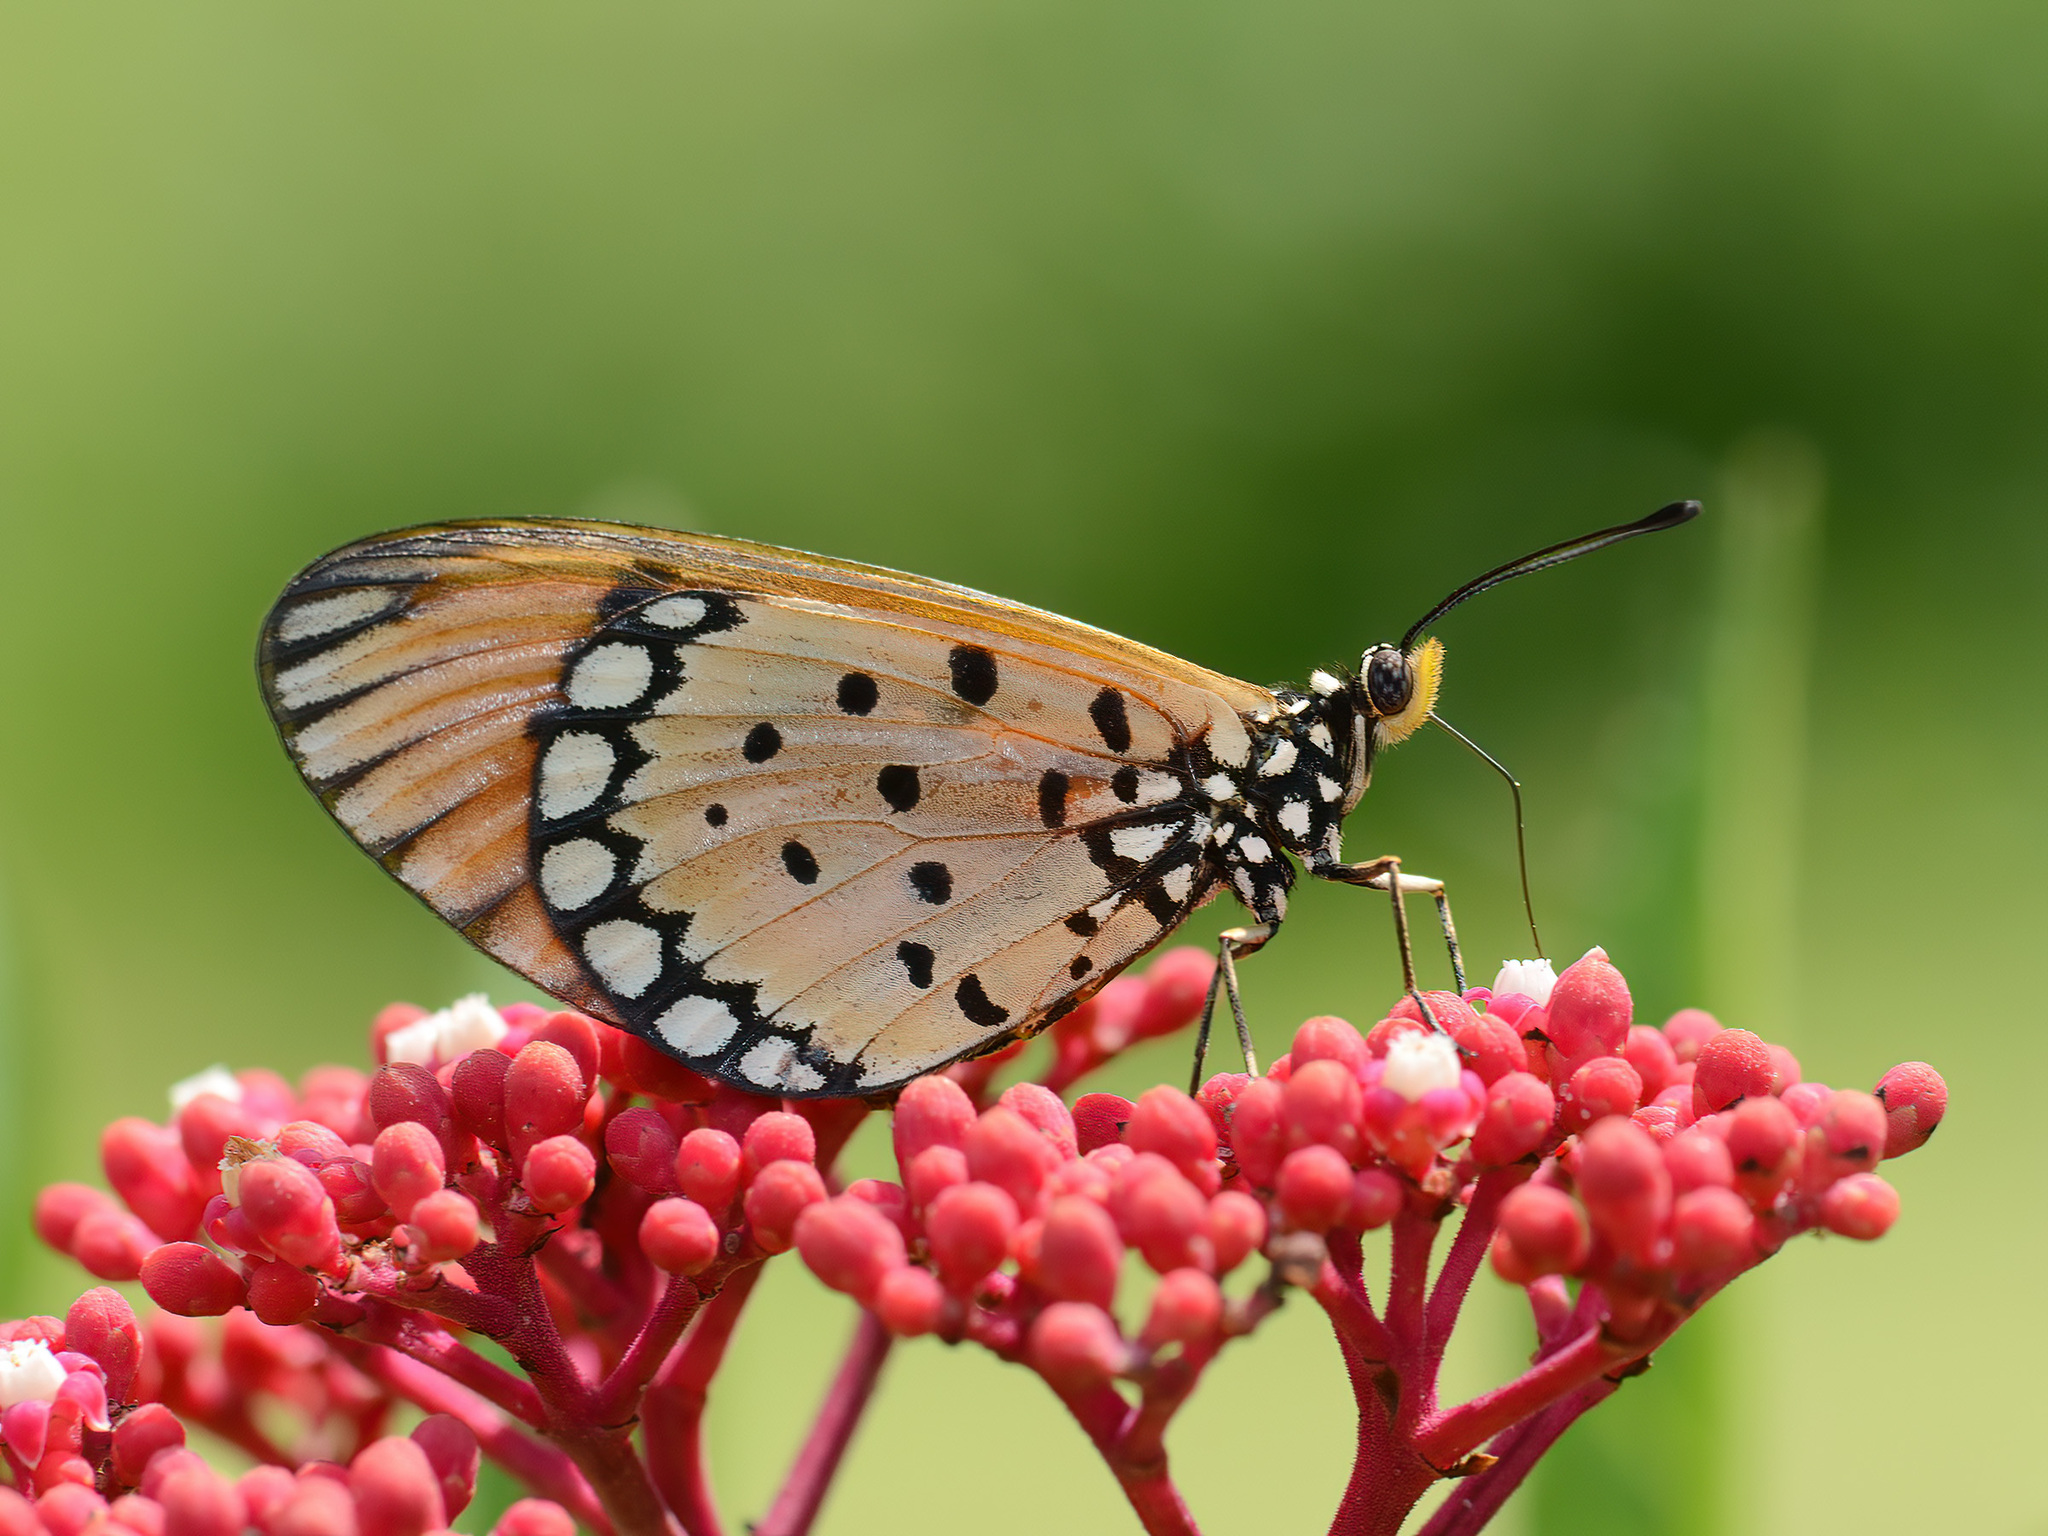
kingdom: Animalia
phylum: Arthropoda
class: Insecta
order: Lepidoptera
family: Nymphalidae
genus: Acraea
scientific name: Acraea terpsicore
